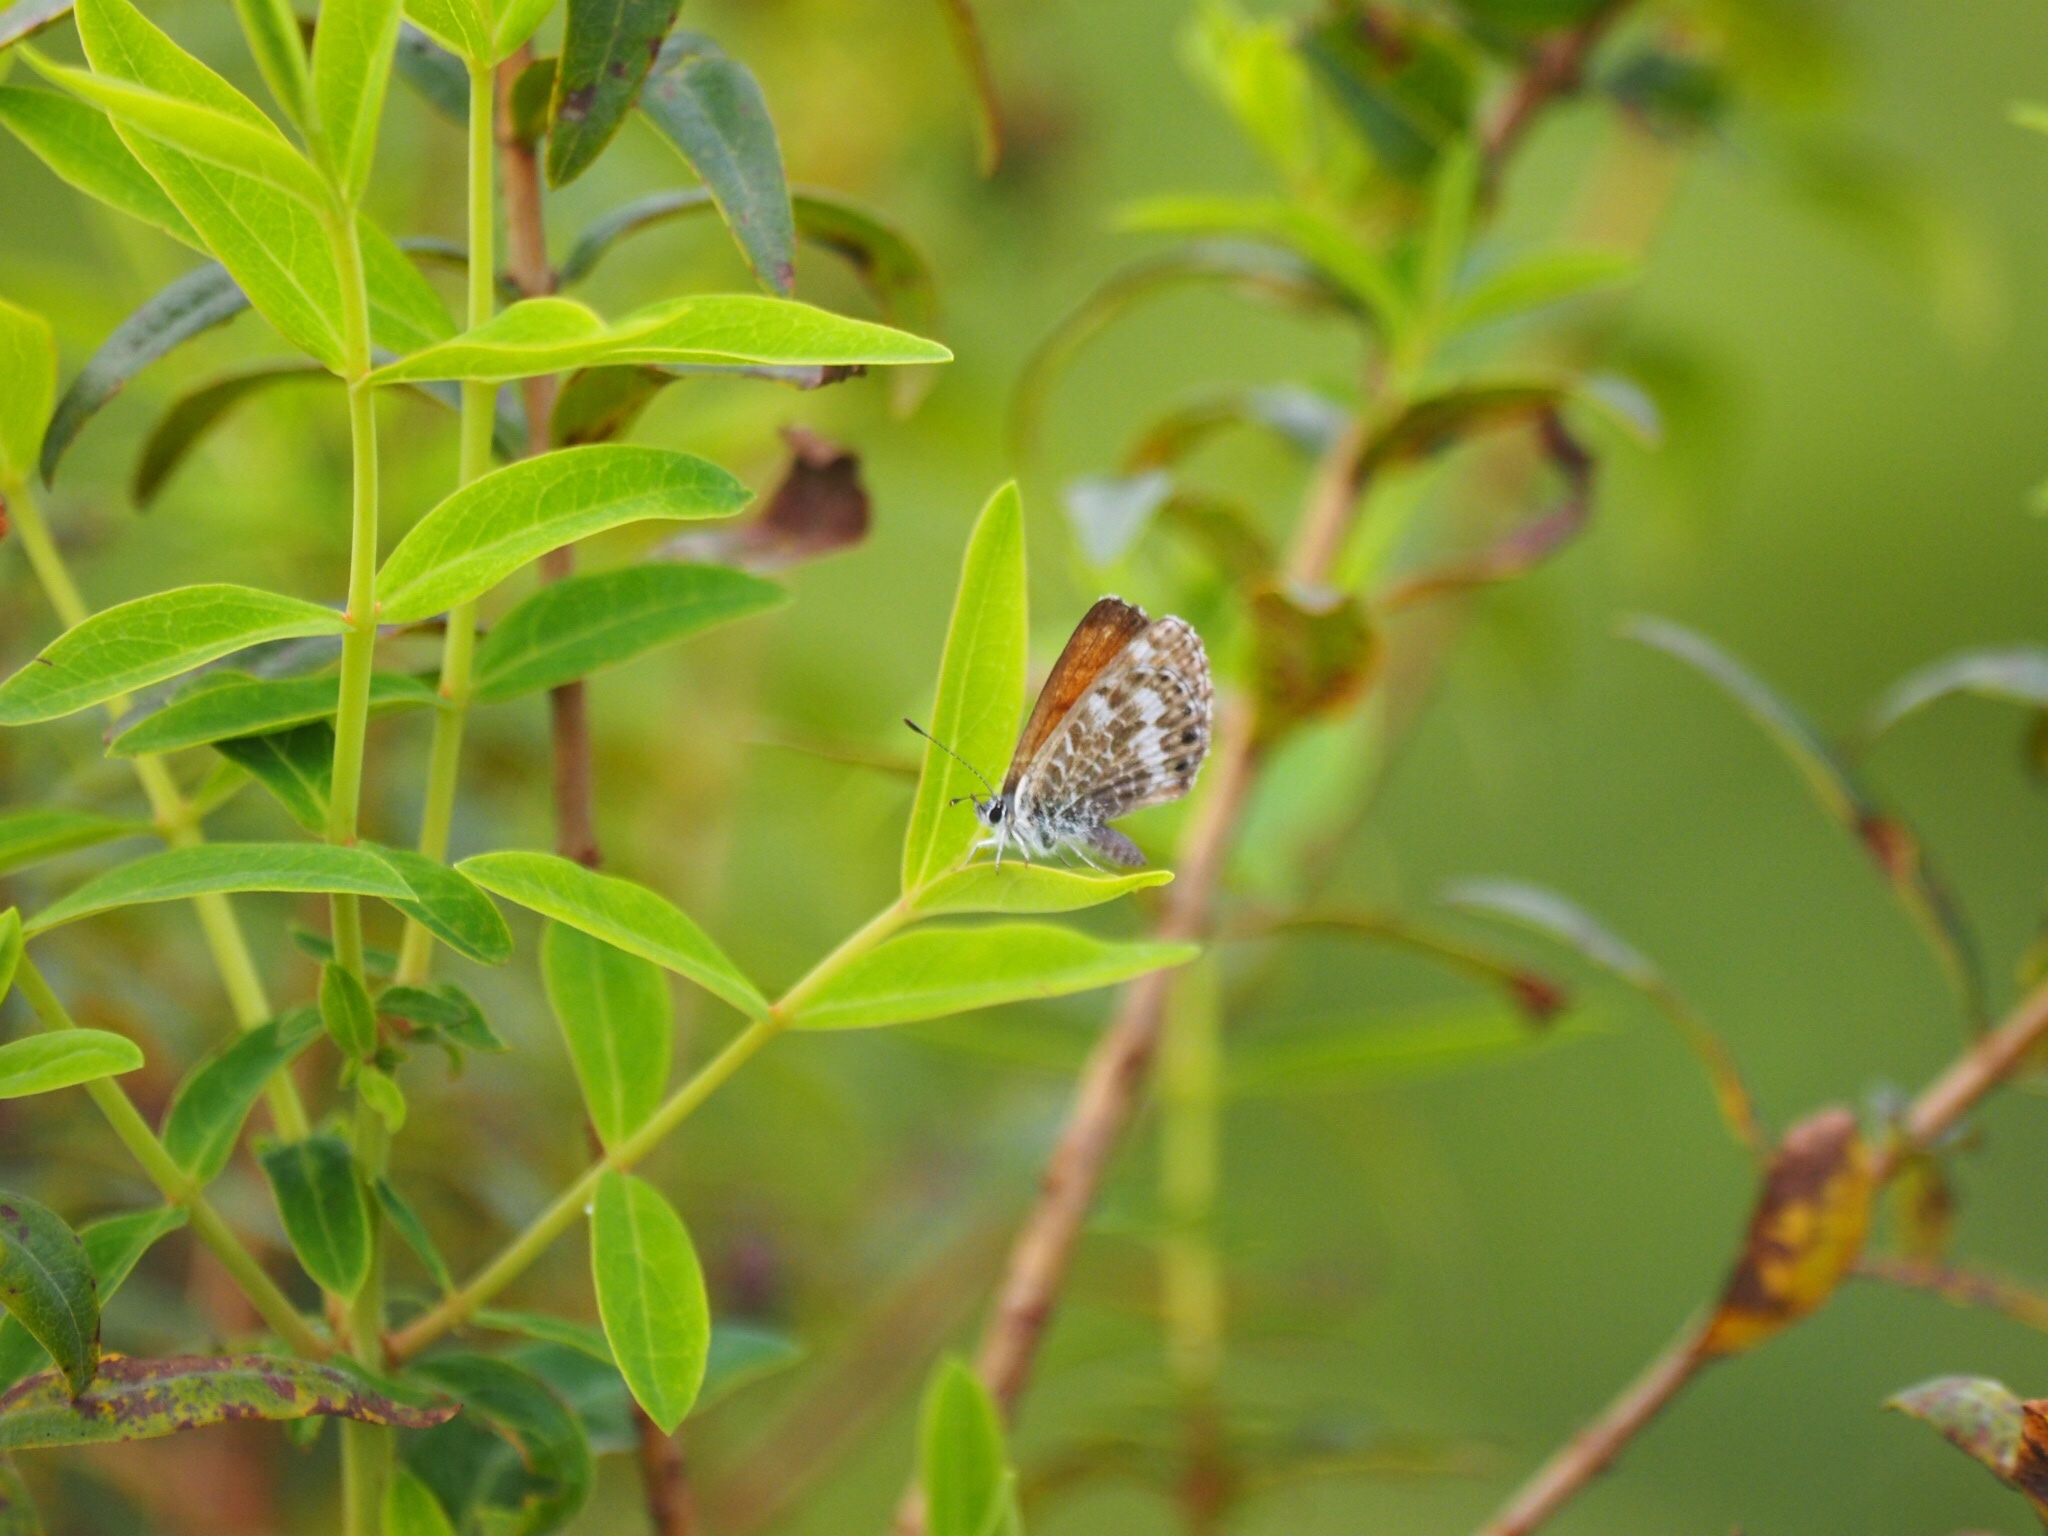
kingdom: Animalia
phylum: Arthropoda
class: Insecta
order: Lepidoptera
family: Lycaenidae
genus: Cyclyrius
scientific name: Cyclyrius webbianus
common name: Canary blue
